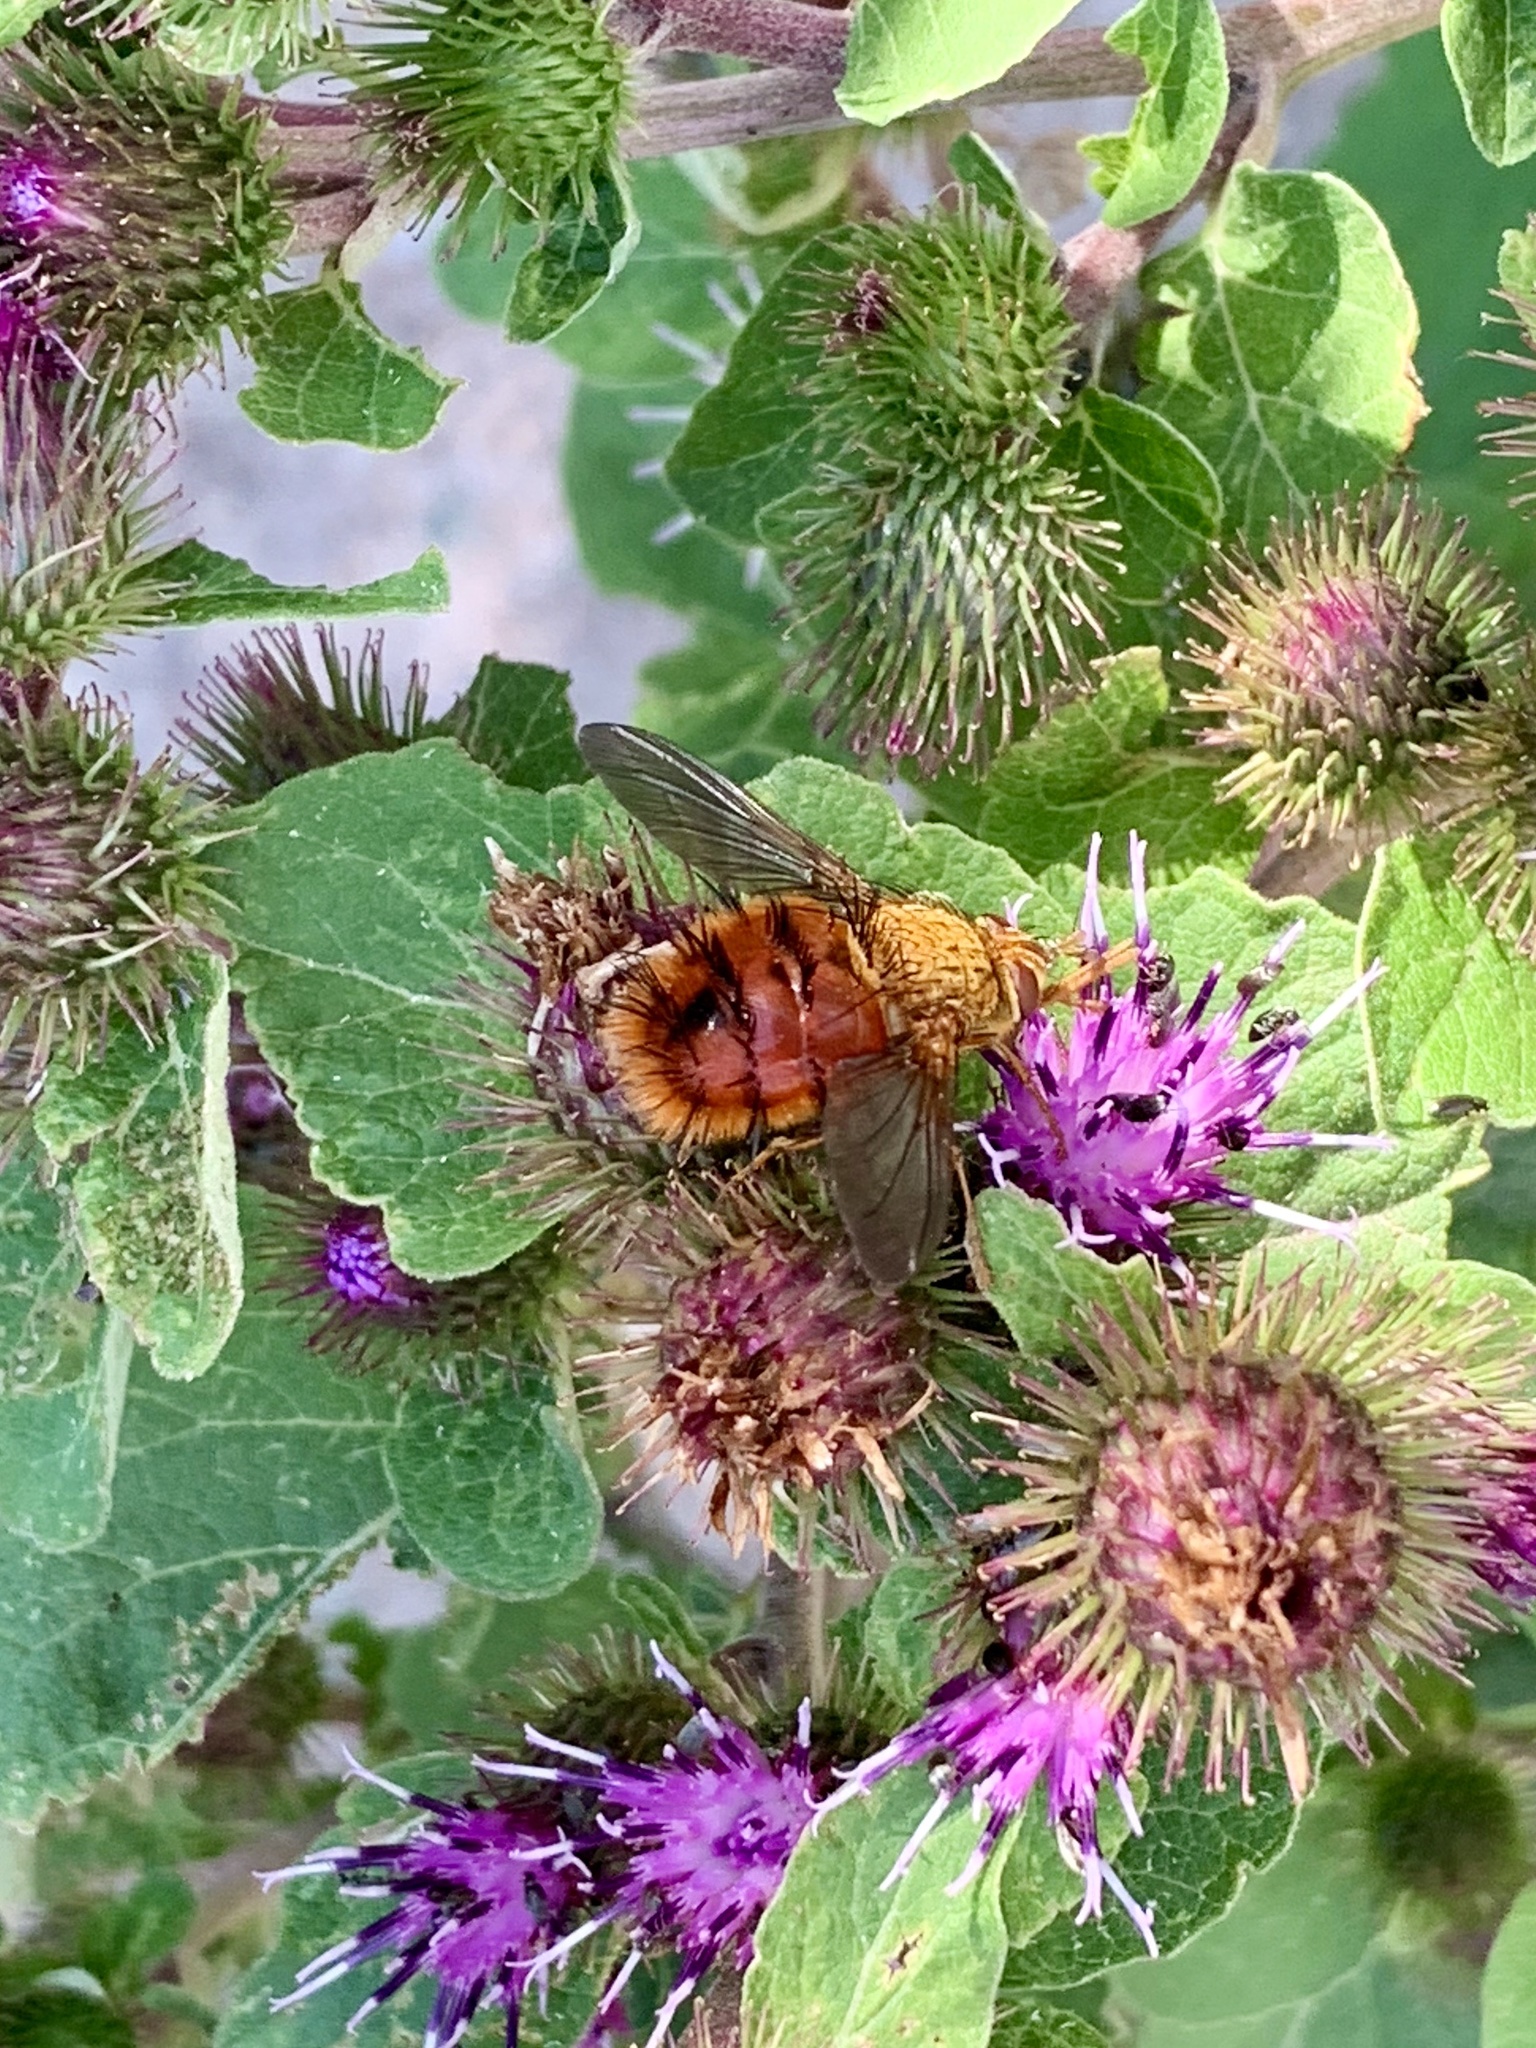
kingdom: Animalia
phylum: Arthropoda
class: Insecta
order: Diptera
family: Tachinidae
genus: Adejeania
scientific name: Adejeania vexatrix
